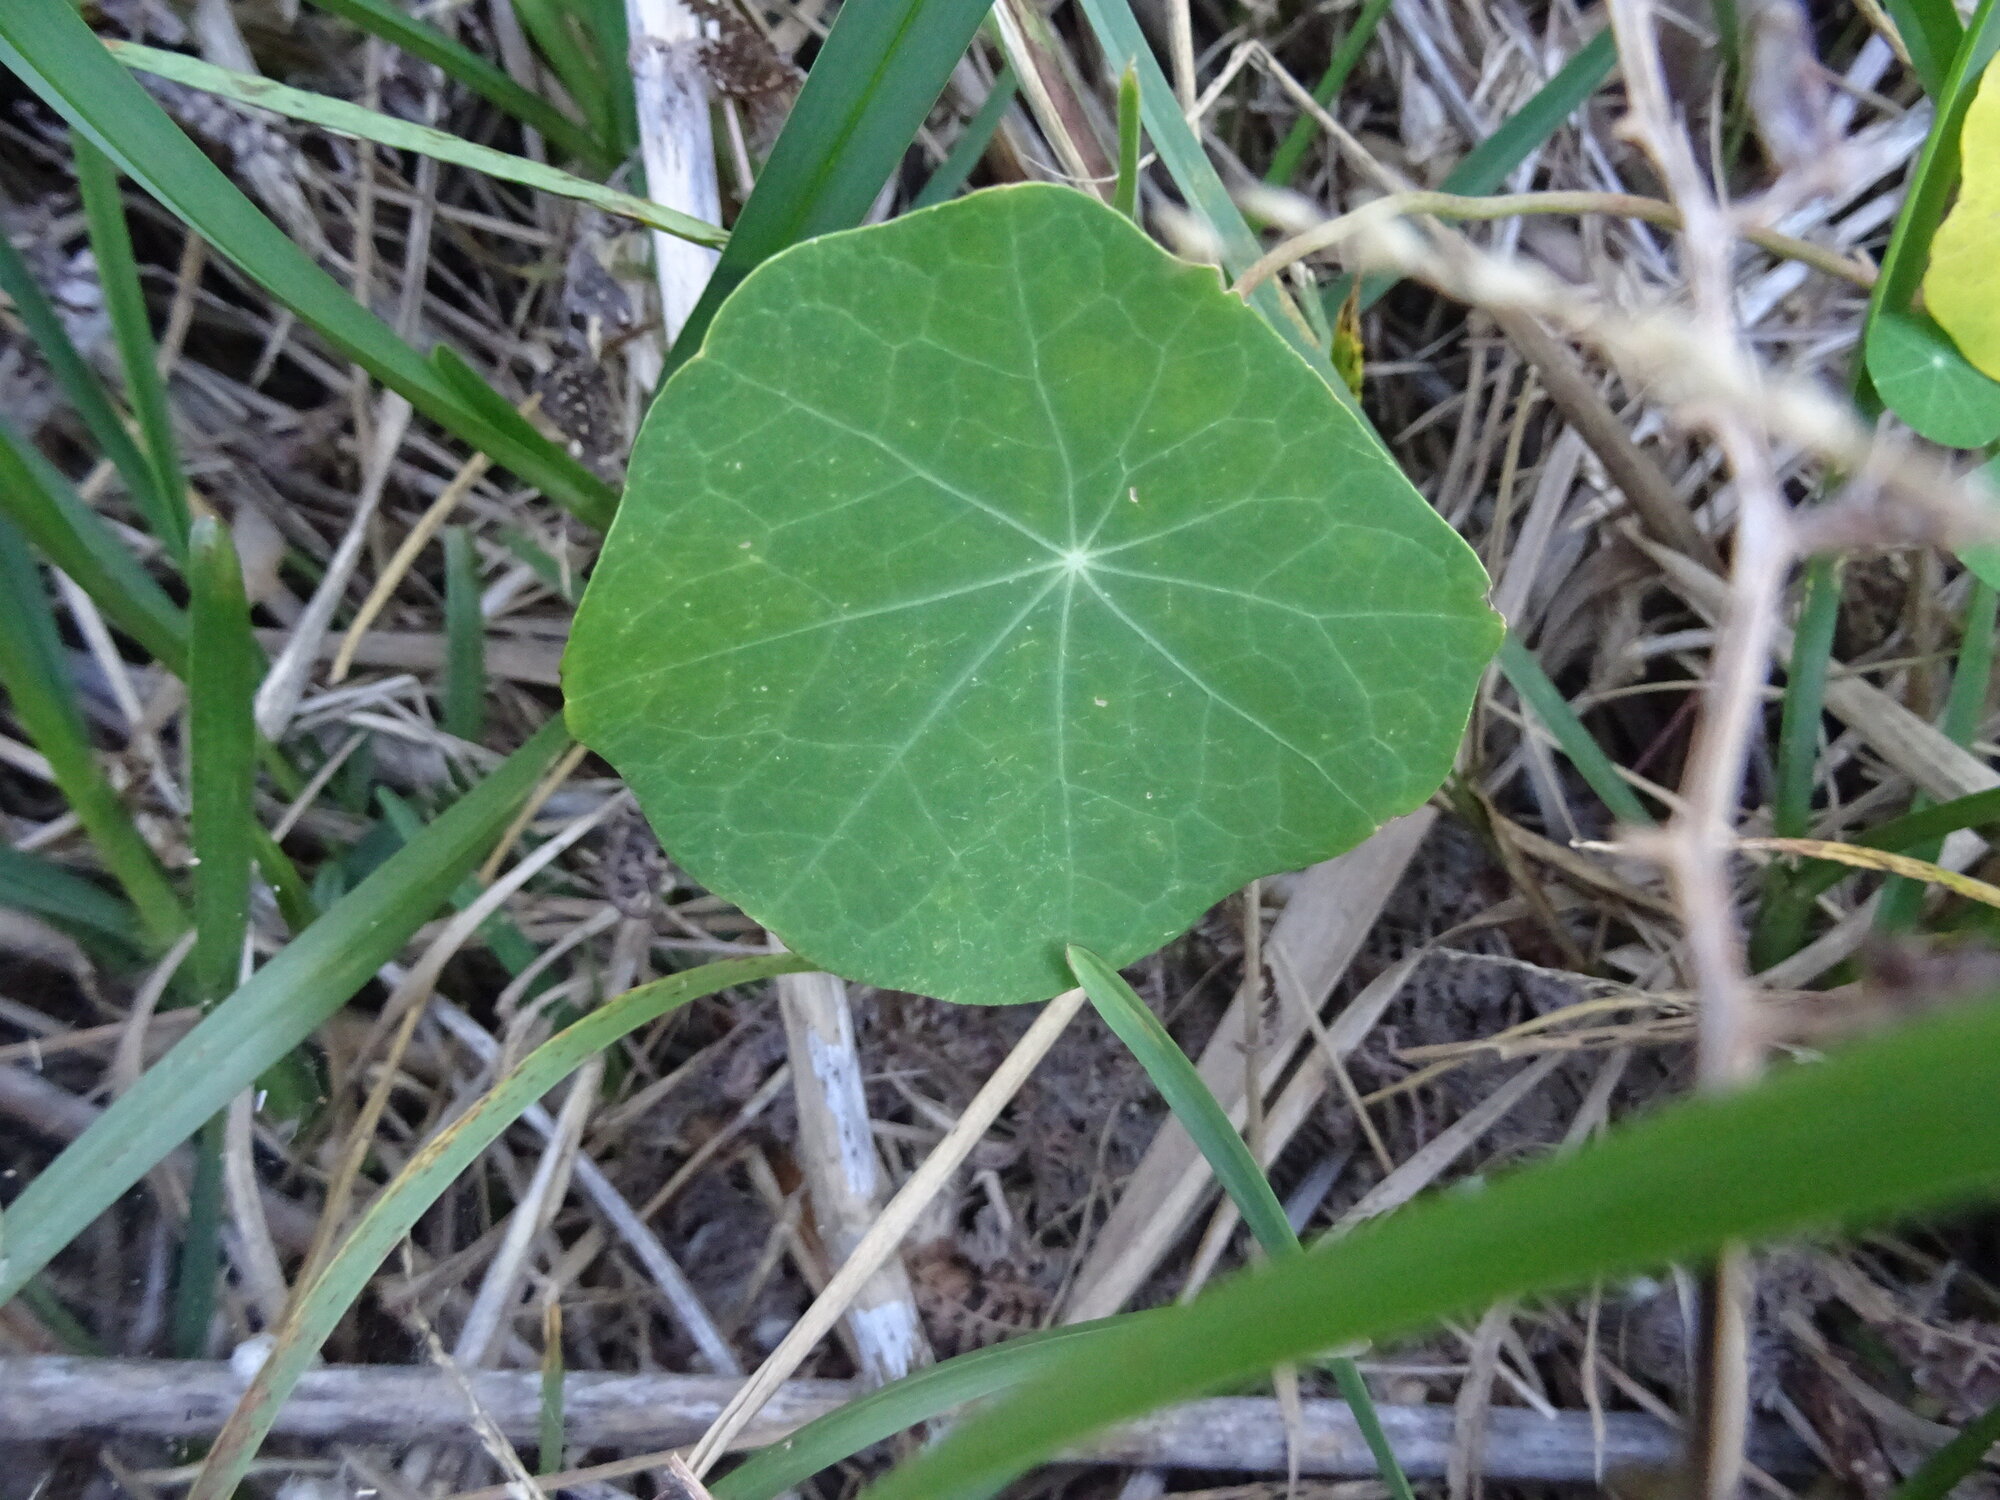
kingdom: Plantae
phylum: Tracheophyta
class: Magnoliopsida
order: Brassicales
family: Tropaeolaceae
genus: Tropaeolum
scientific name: Tropaeolum majus
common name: Nasturtium
